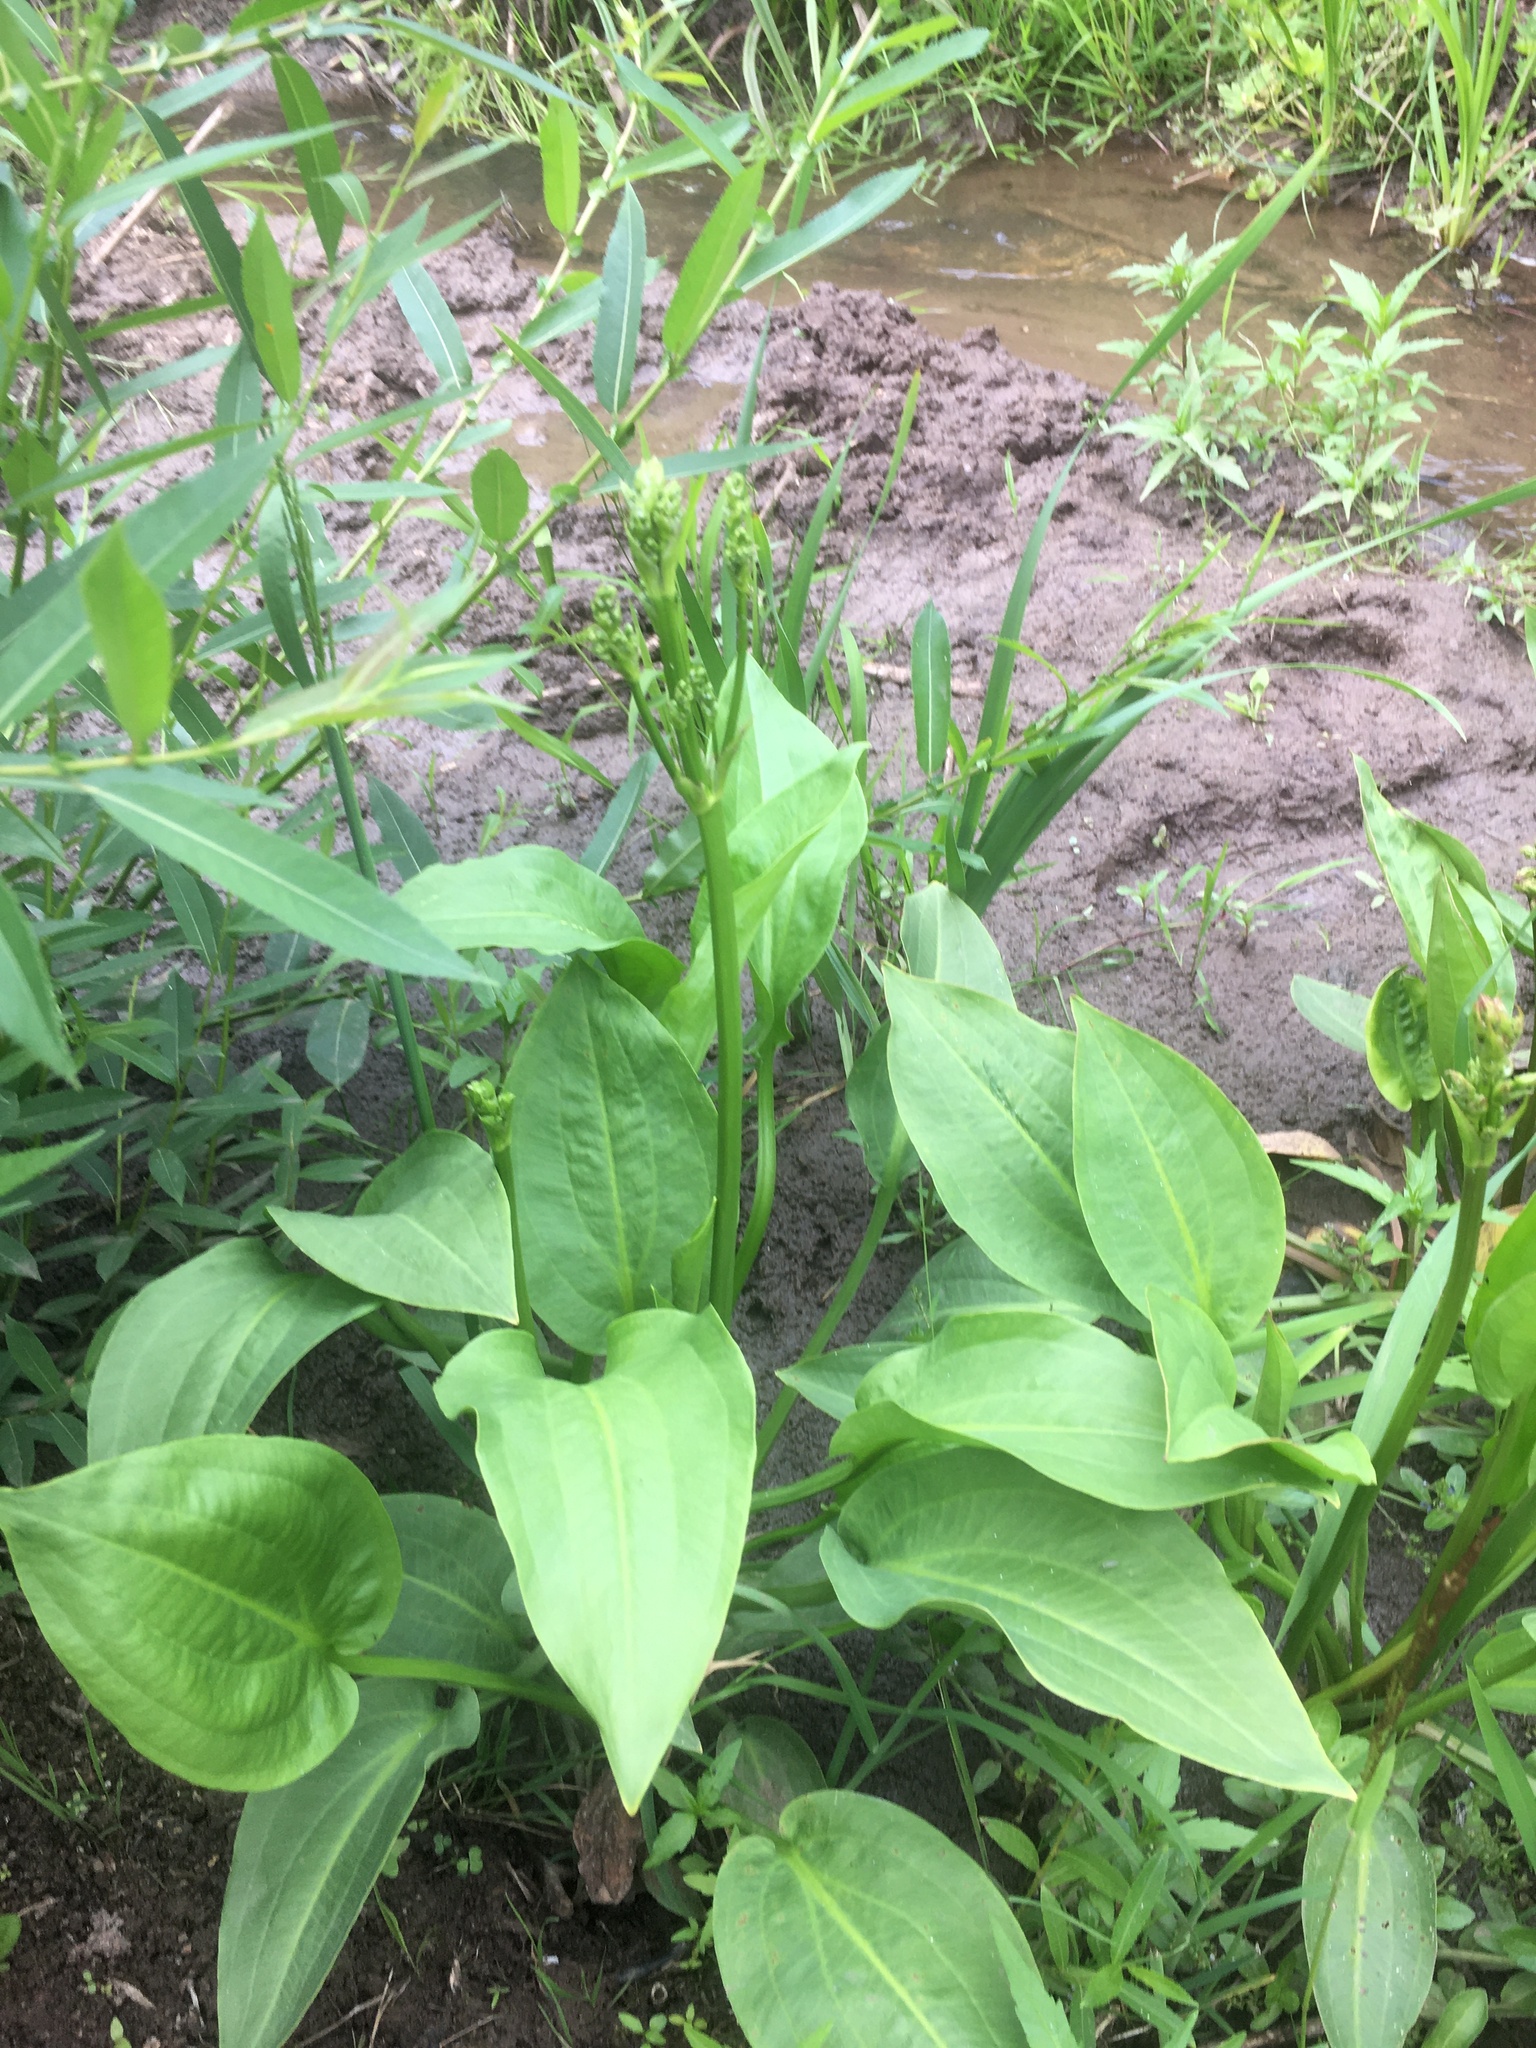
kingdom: Plantae
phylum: Tracheophyta
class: Liliopsida
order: Alismatales
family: Alismataceae
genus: Alisma
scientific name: Alisma plantago-aquatica
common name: Water-plantain
